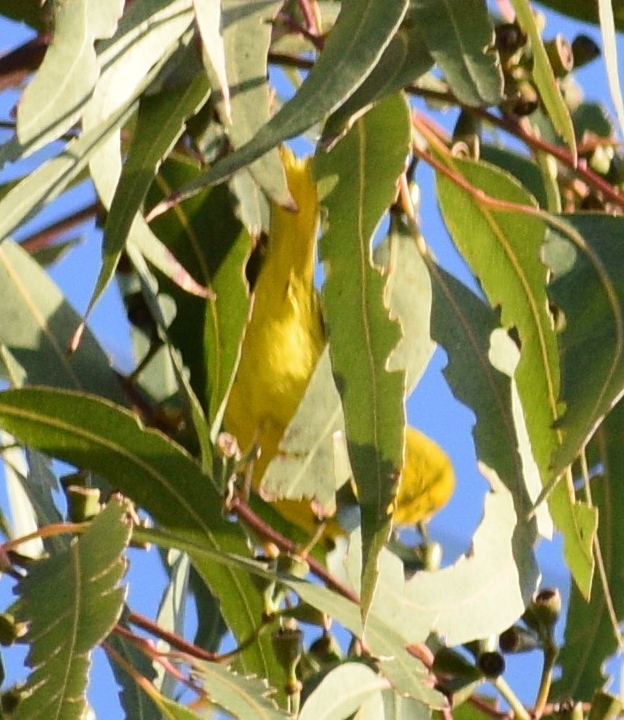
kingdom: Animalia
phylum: Chordata
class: Aves
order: Passeriformes
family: Parulidae
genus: Setophaga
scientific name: Setophaga petechia
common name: Yellow warbler
